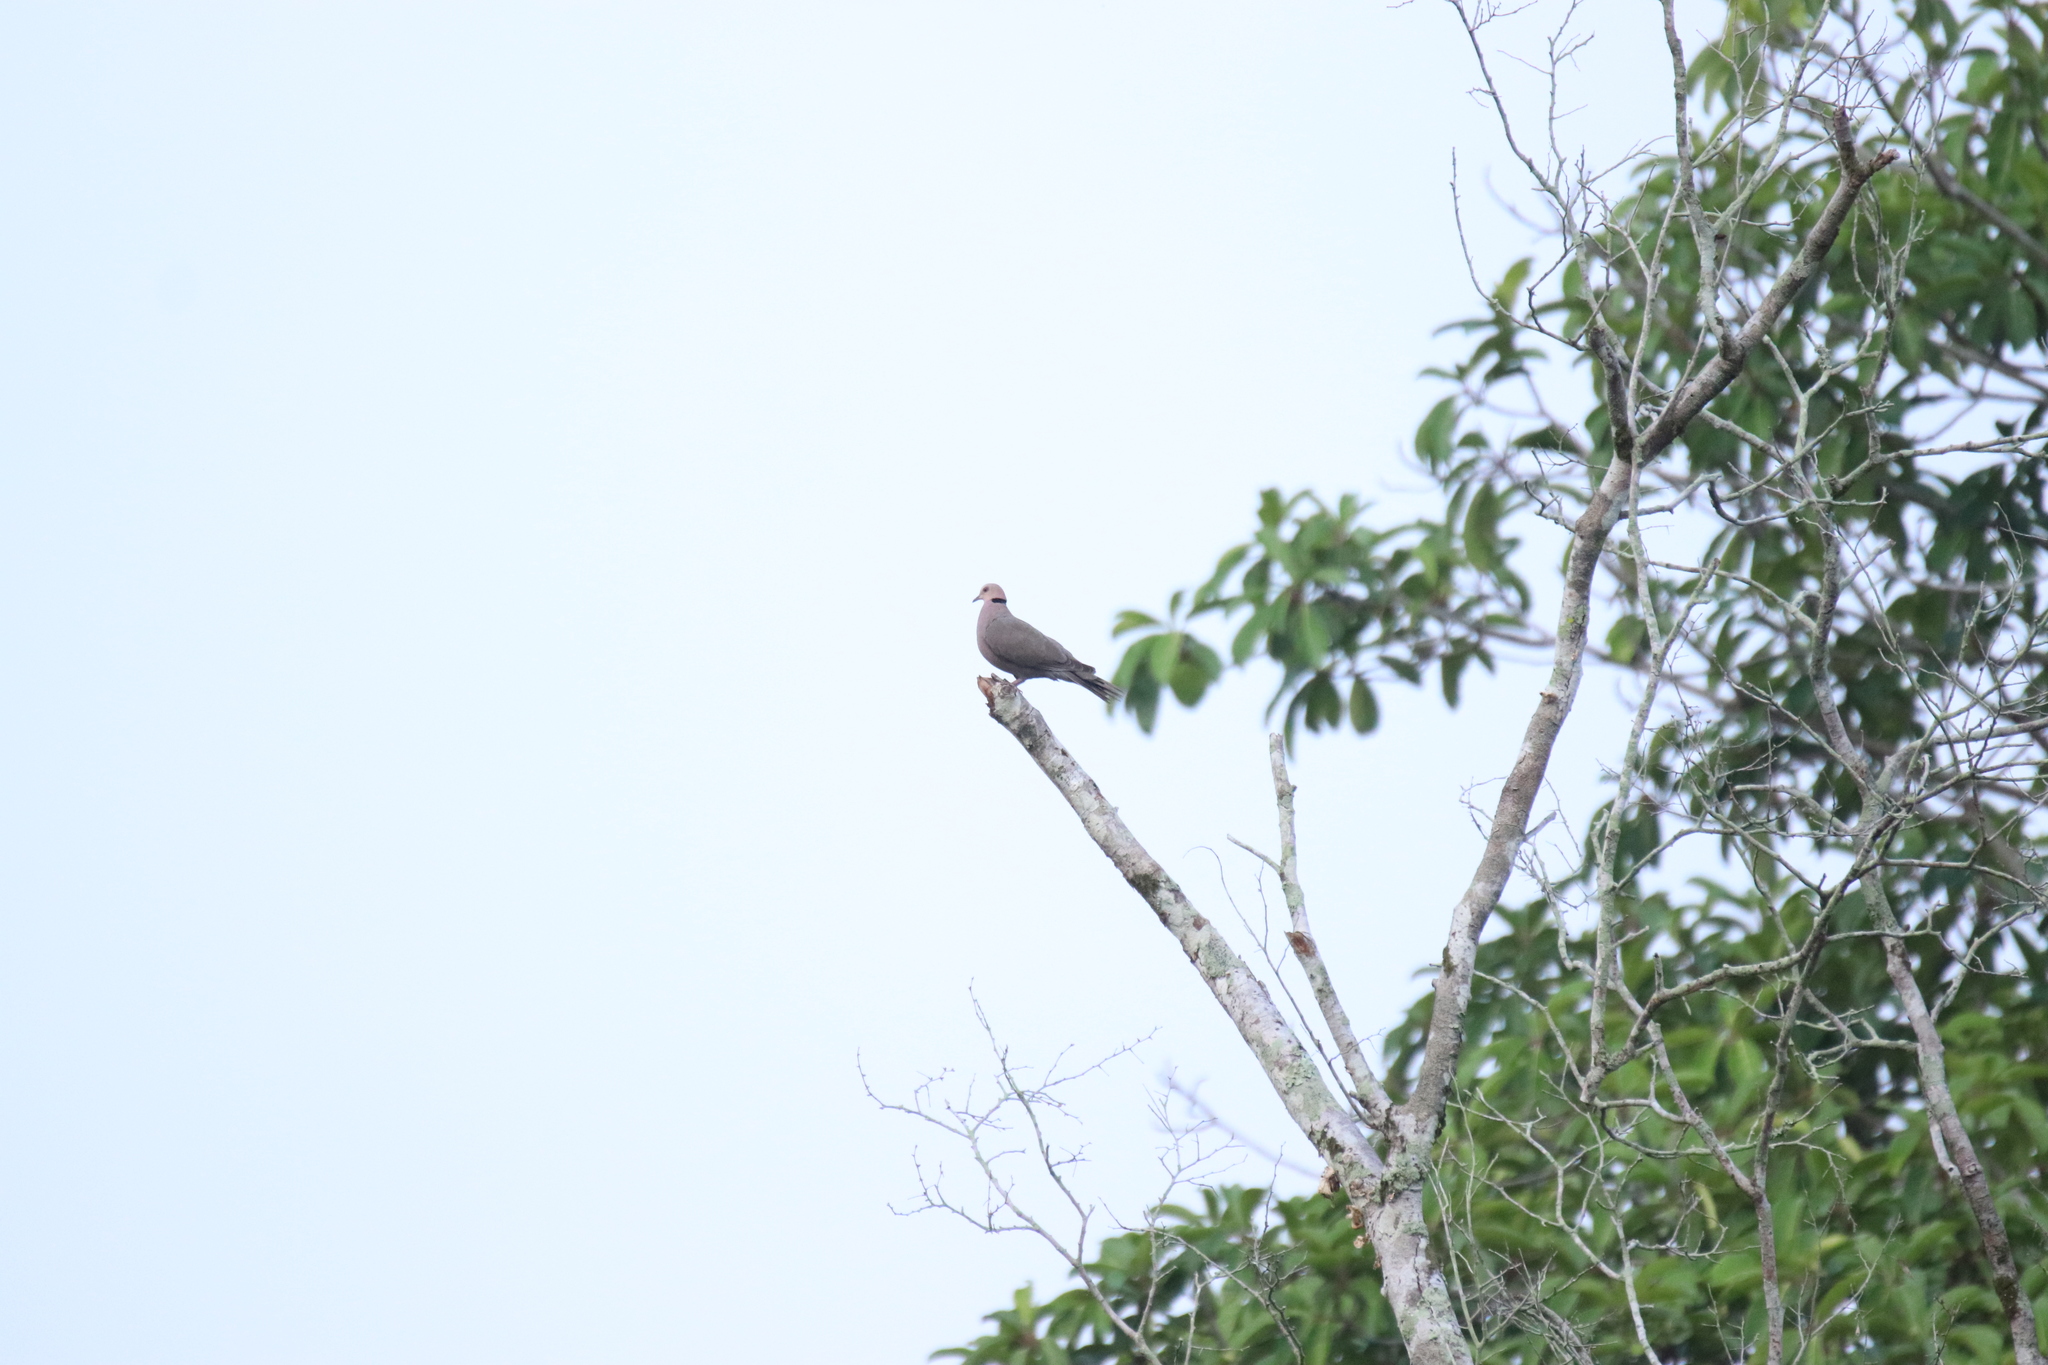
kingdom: Animalia
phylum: Chordata
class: Aves
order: Columbiformes
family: Columbidae
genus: Streptopelia
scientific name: Streptopelia semitorquata
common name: Red-eyed dove
